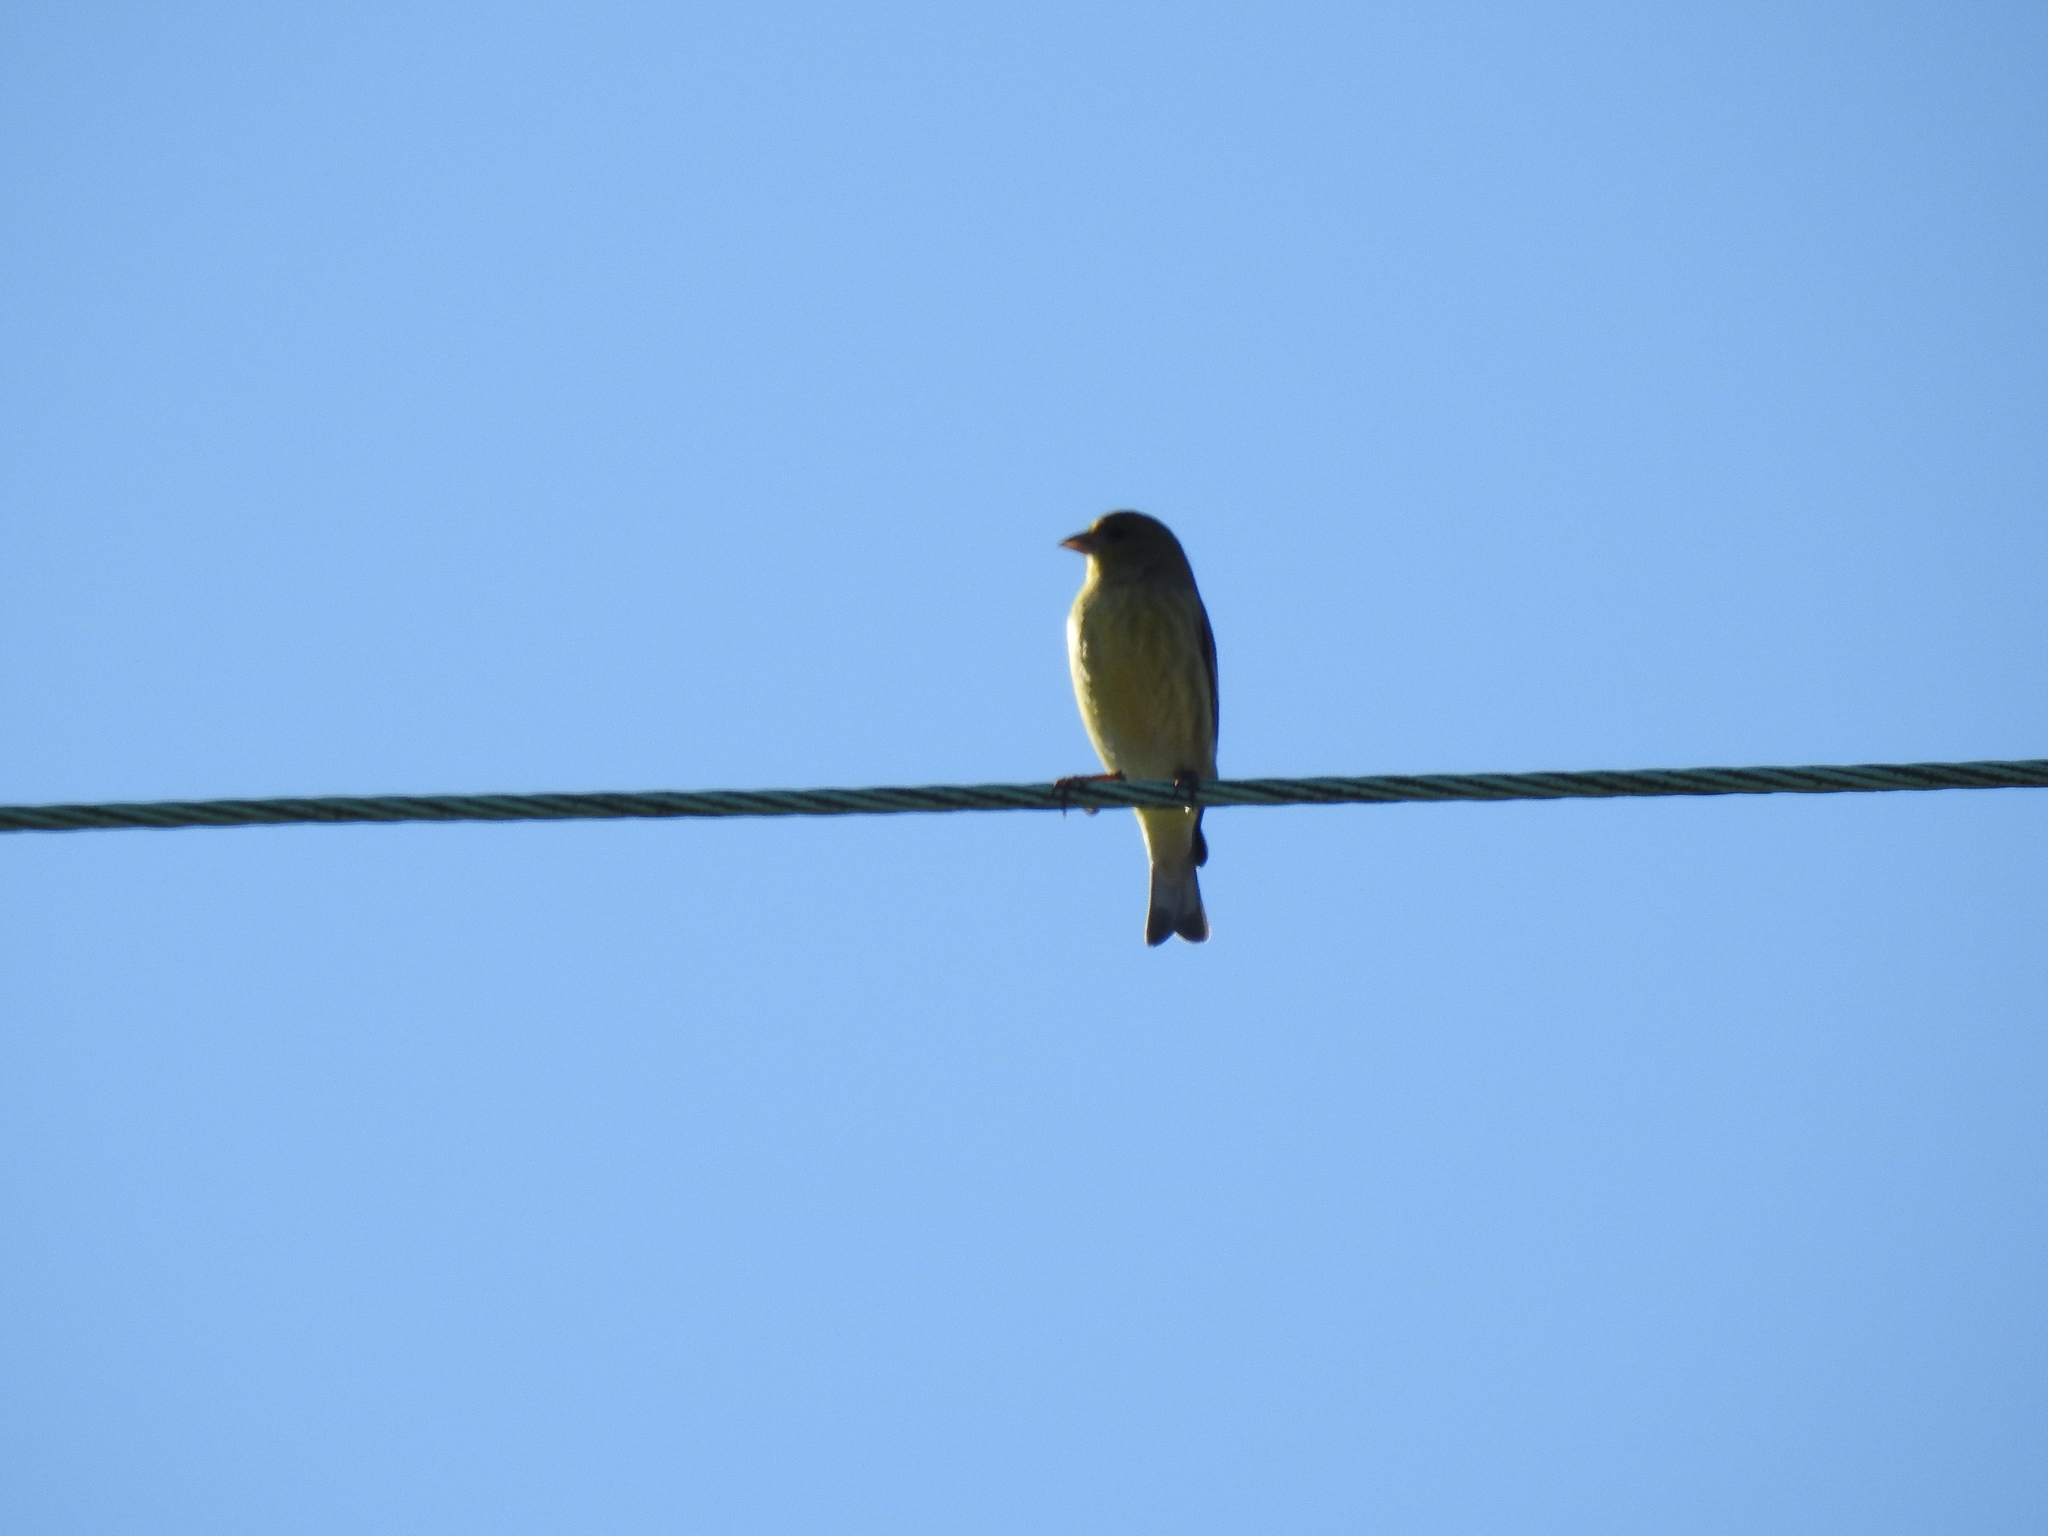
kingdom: Animalia
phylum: Chordata
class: Aves
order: Passeriformes
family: Fringillidae
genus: Spinus
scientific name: Spinus psaltria
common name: Lesser goldfinch
